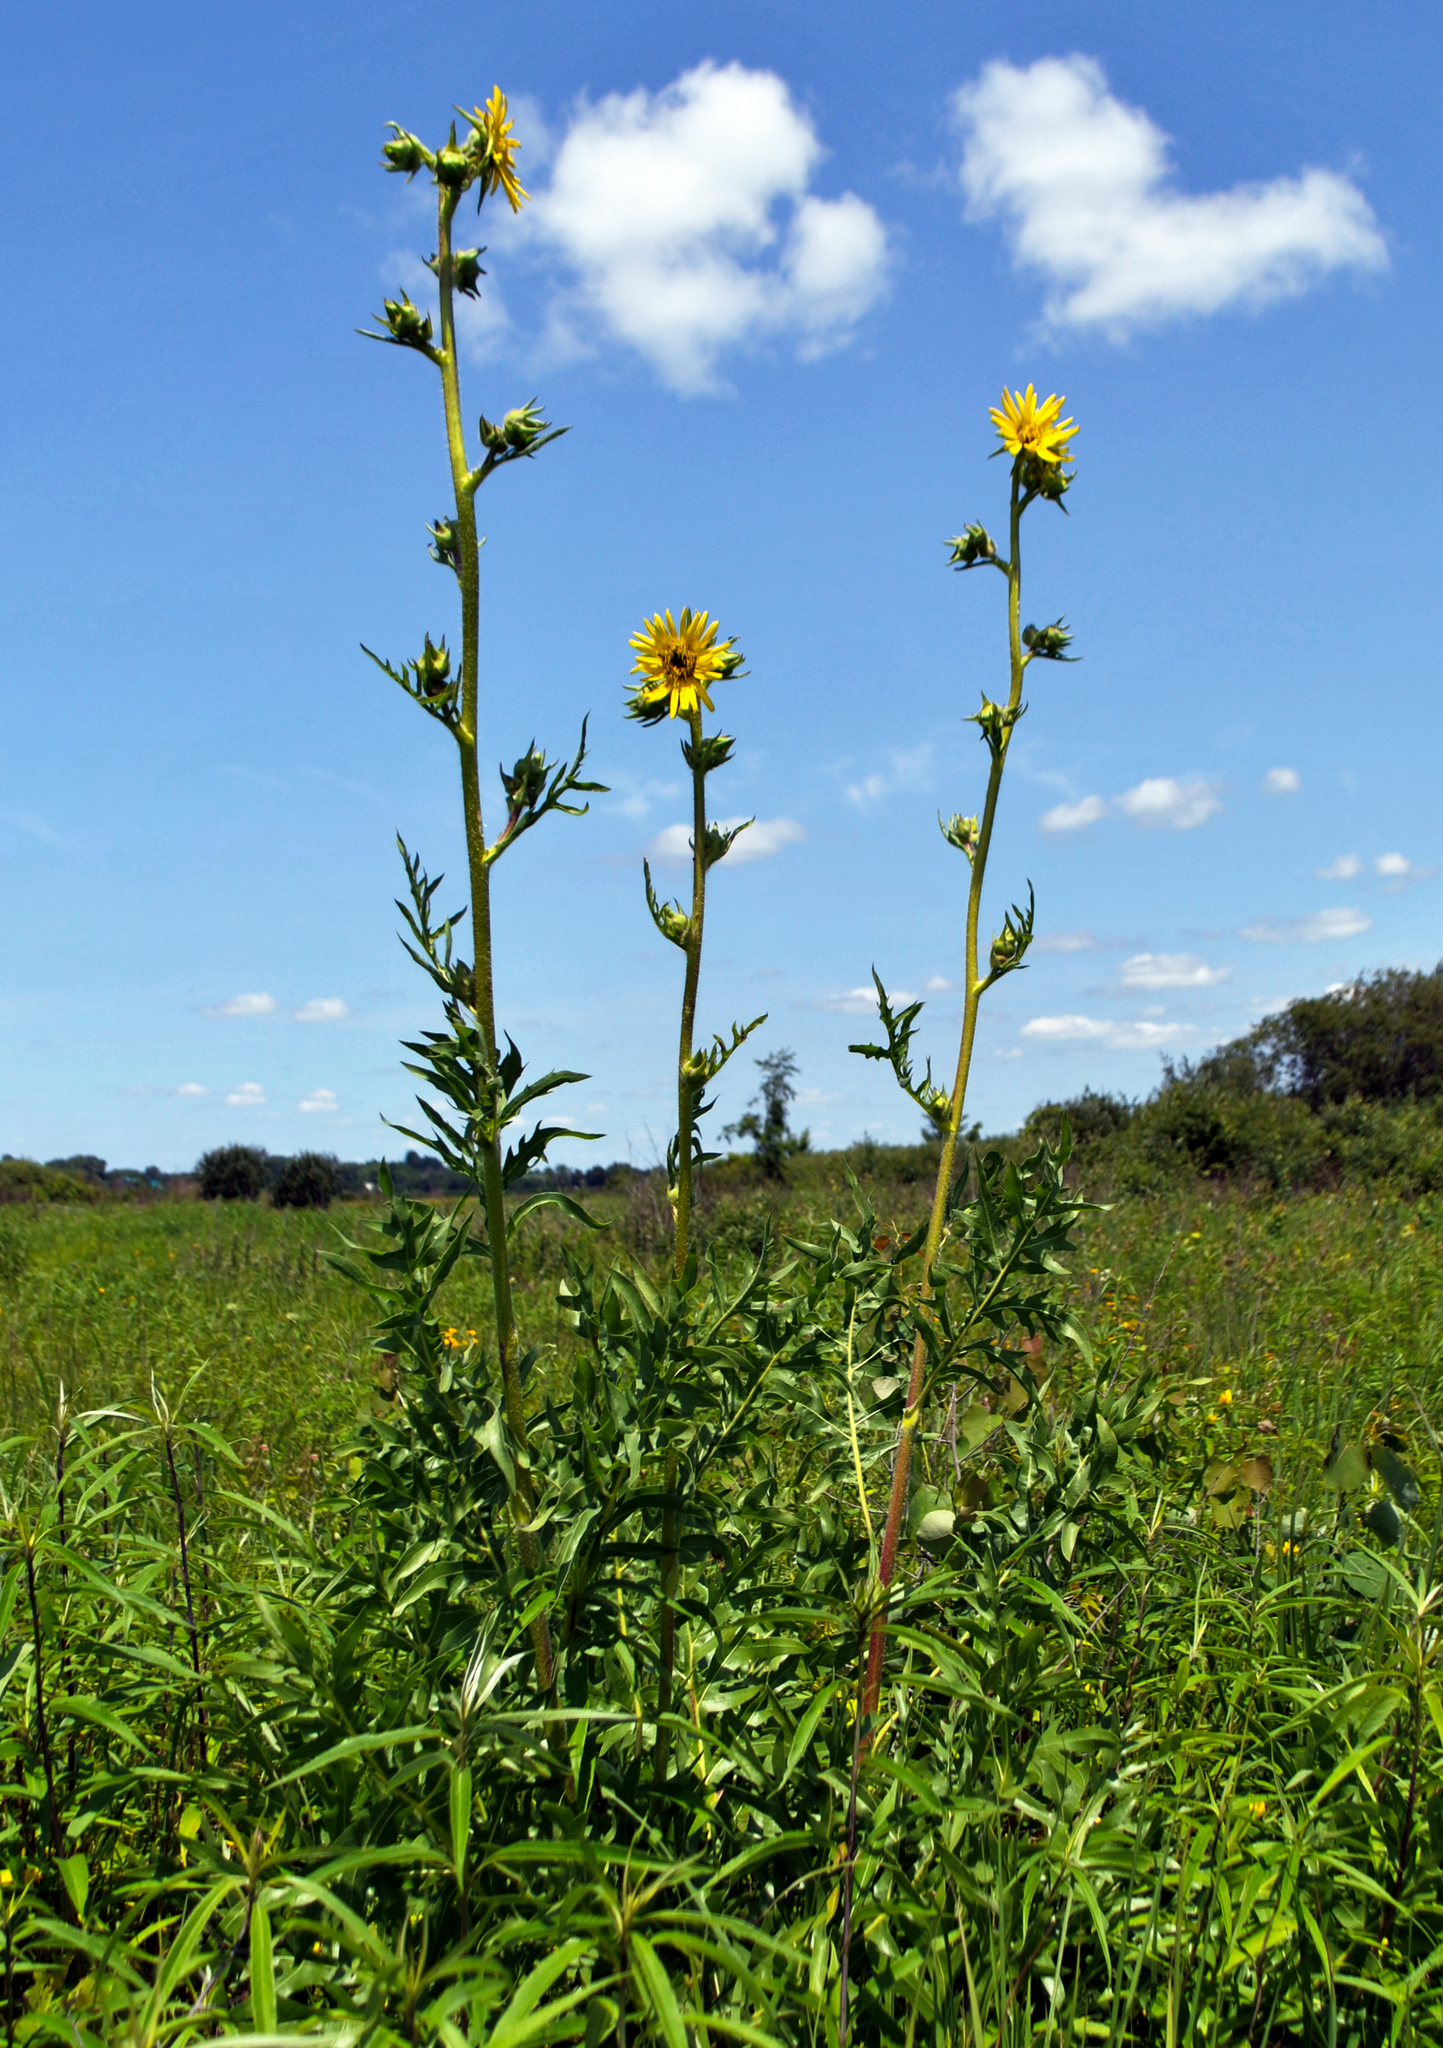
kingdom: Plantae
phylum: Tracheophyta
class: Magnoliopsida
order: Asterales
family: Asteraceae
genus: Silphium
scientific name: Silphium laciniatum
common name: Polarplant
